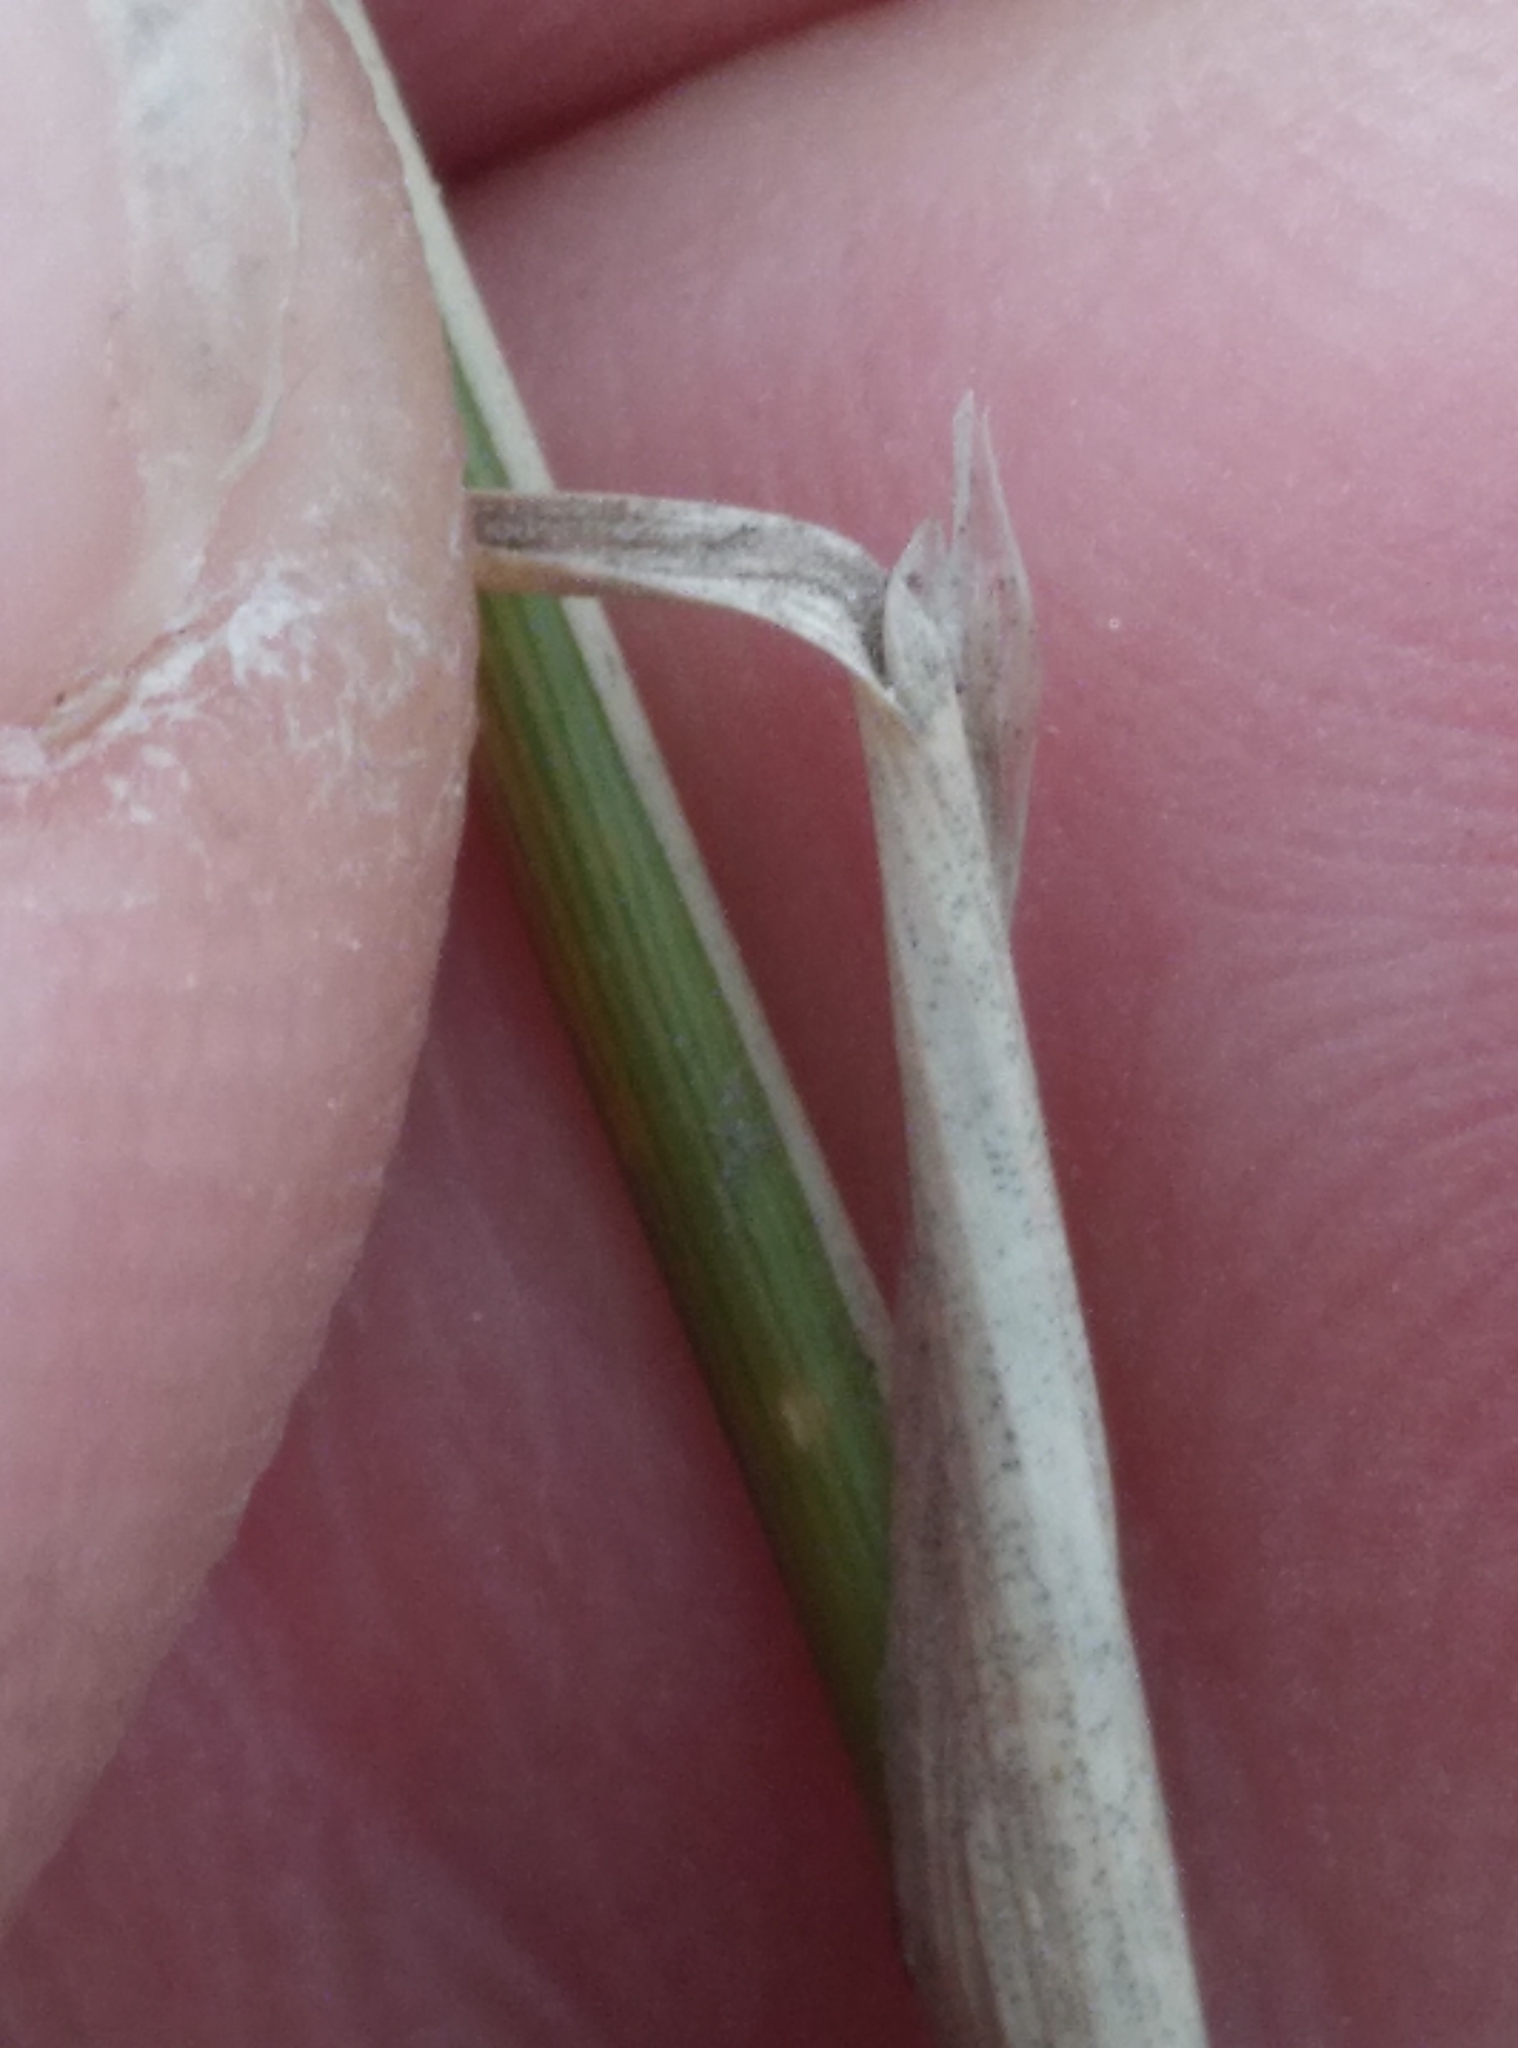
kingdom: Plantae
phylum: Tracheophyta
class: Liliopsida
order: Poales
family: Poaceae
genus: Nassella
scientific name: Nassella trichotoma
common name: Serrated tussock grass
